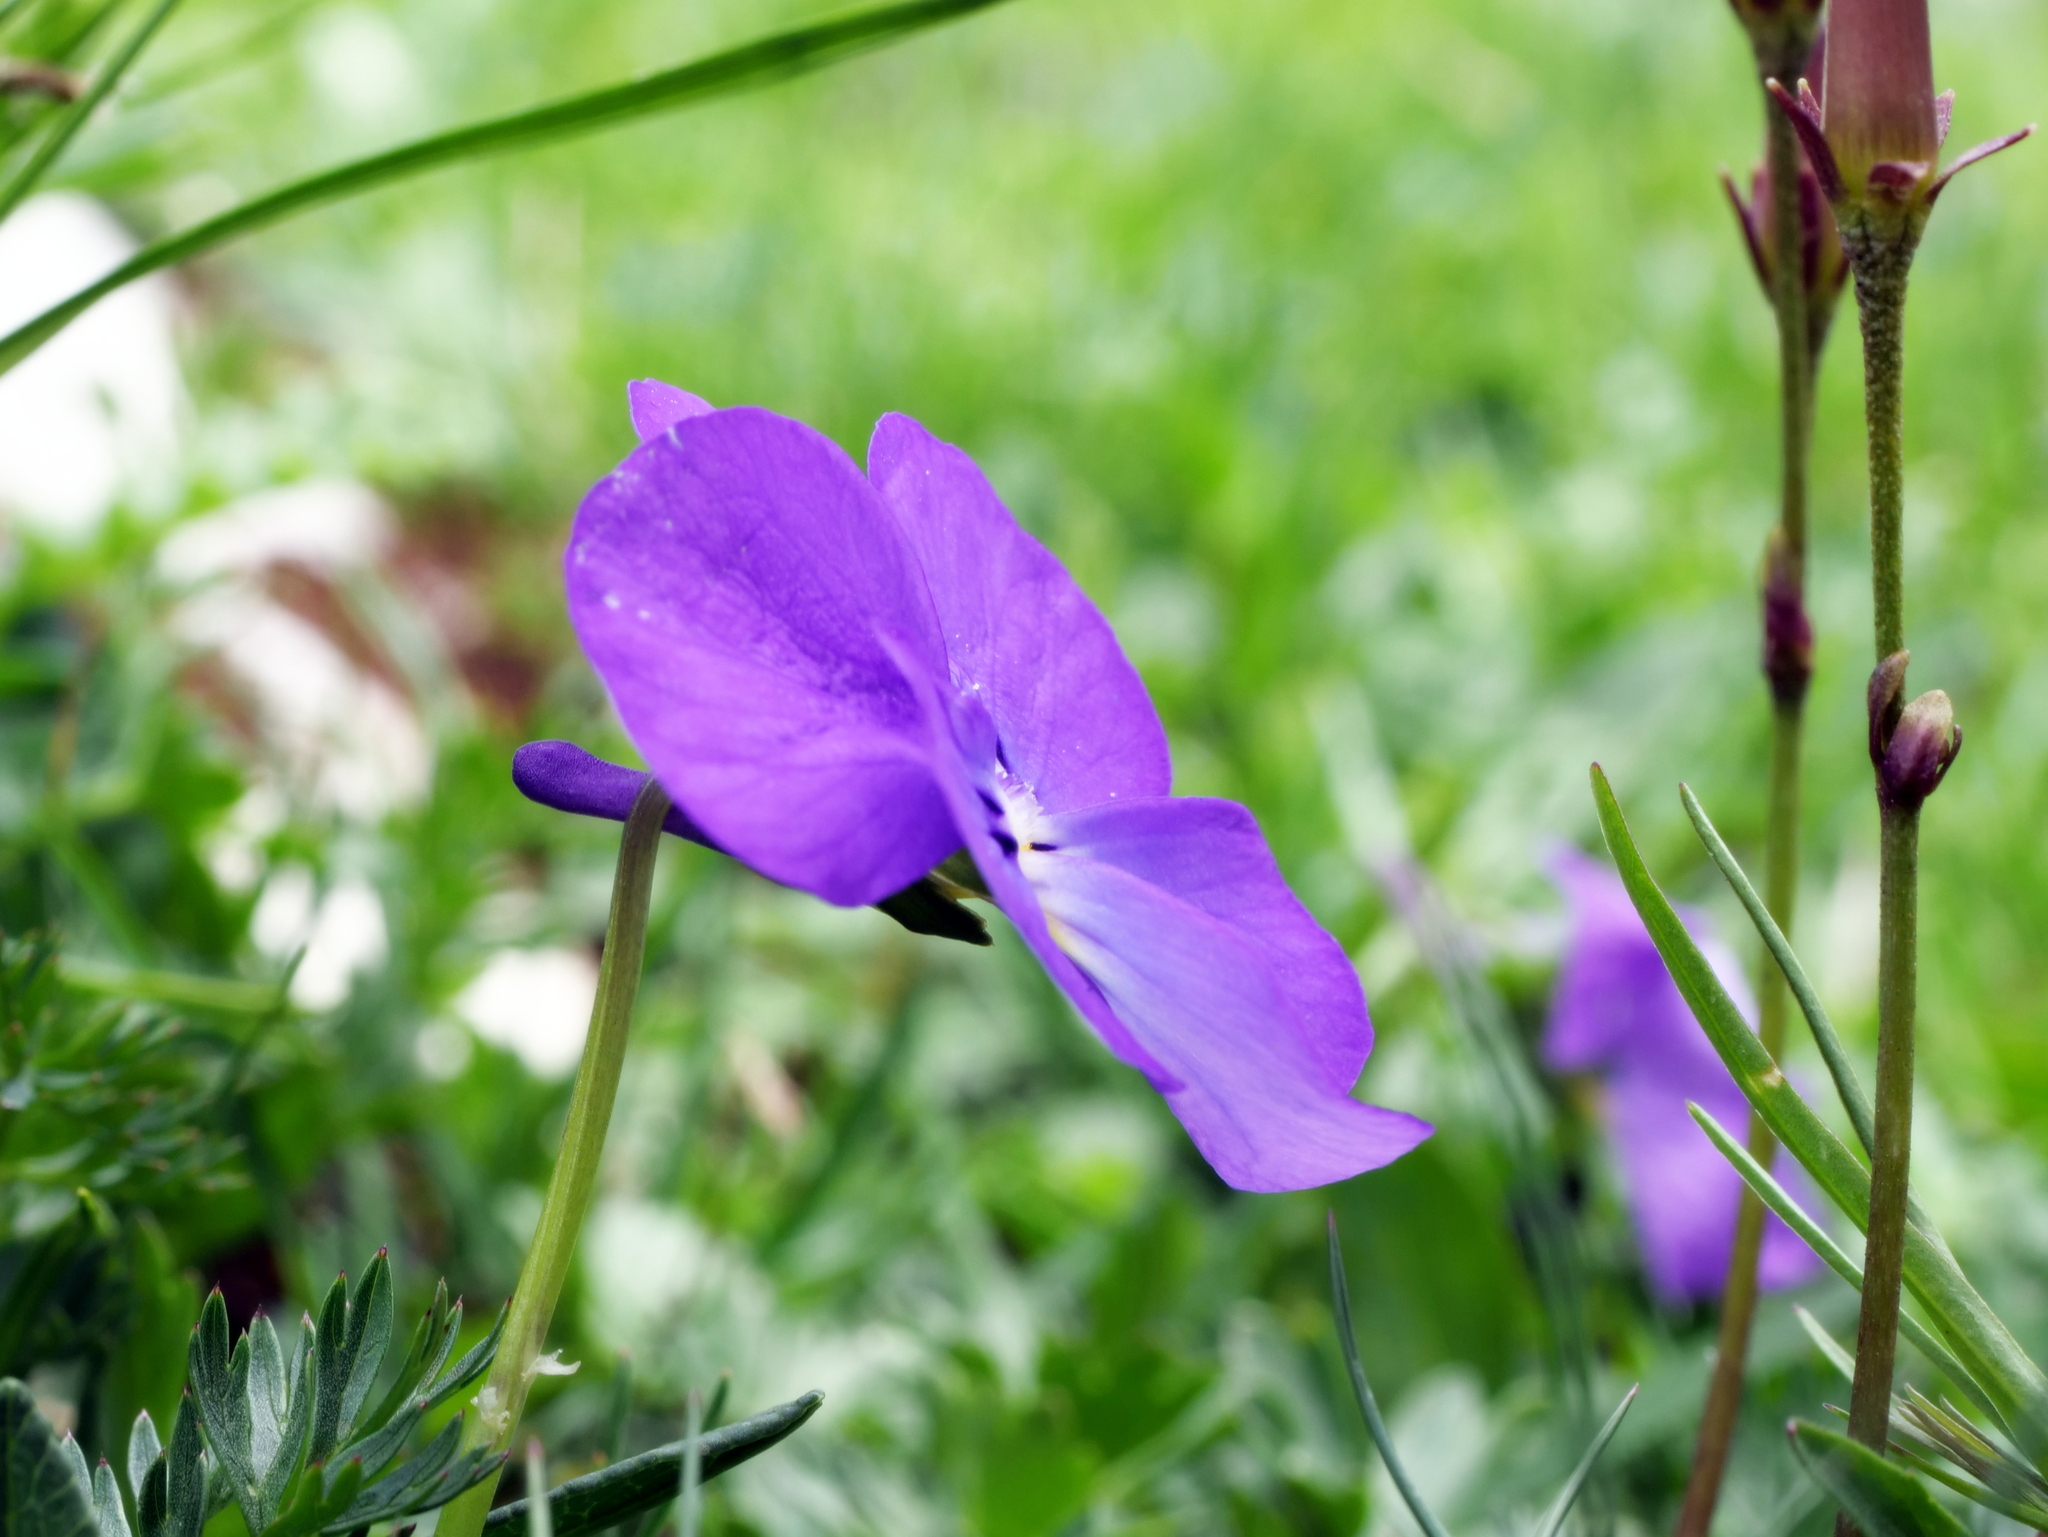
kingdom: Plantae
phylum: Tracheophyta
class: Magnoliopsida
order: Malpighiales
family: Violaceae
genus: Viola
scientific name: Viola calcarata
